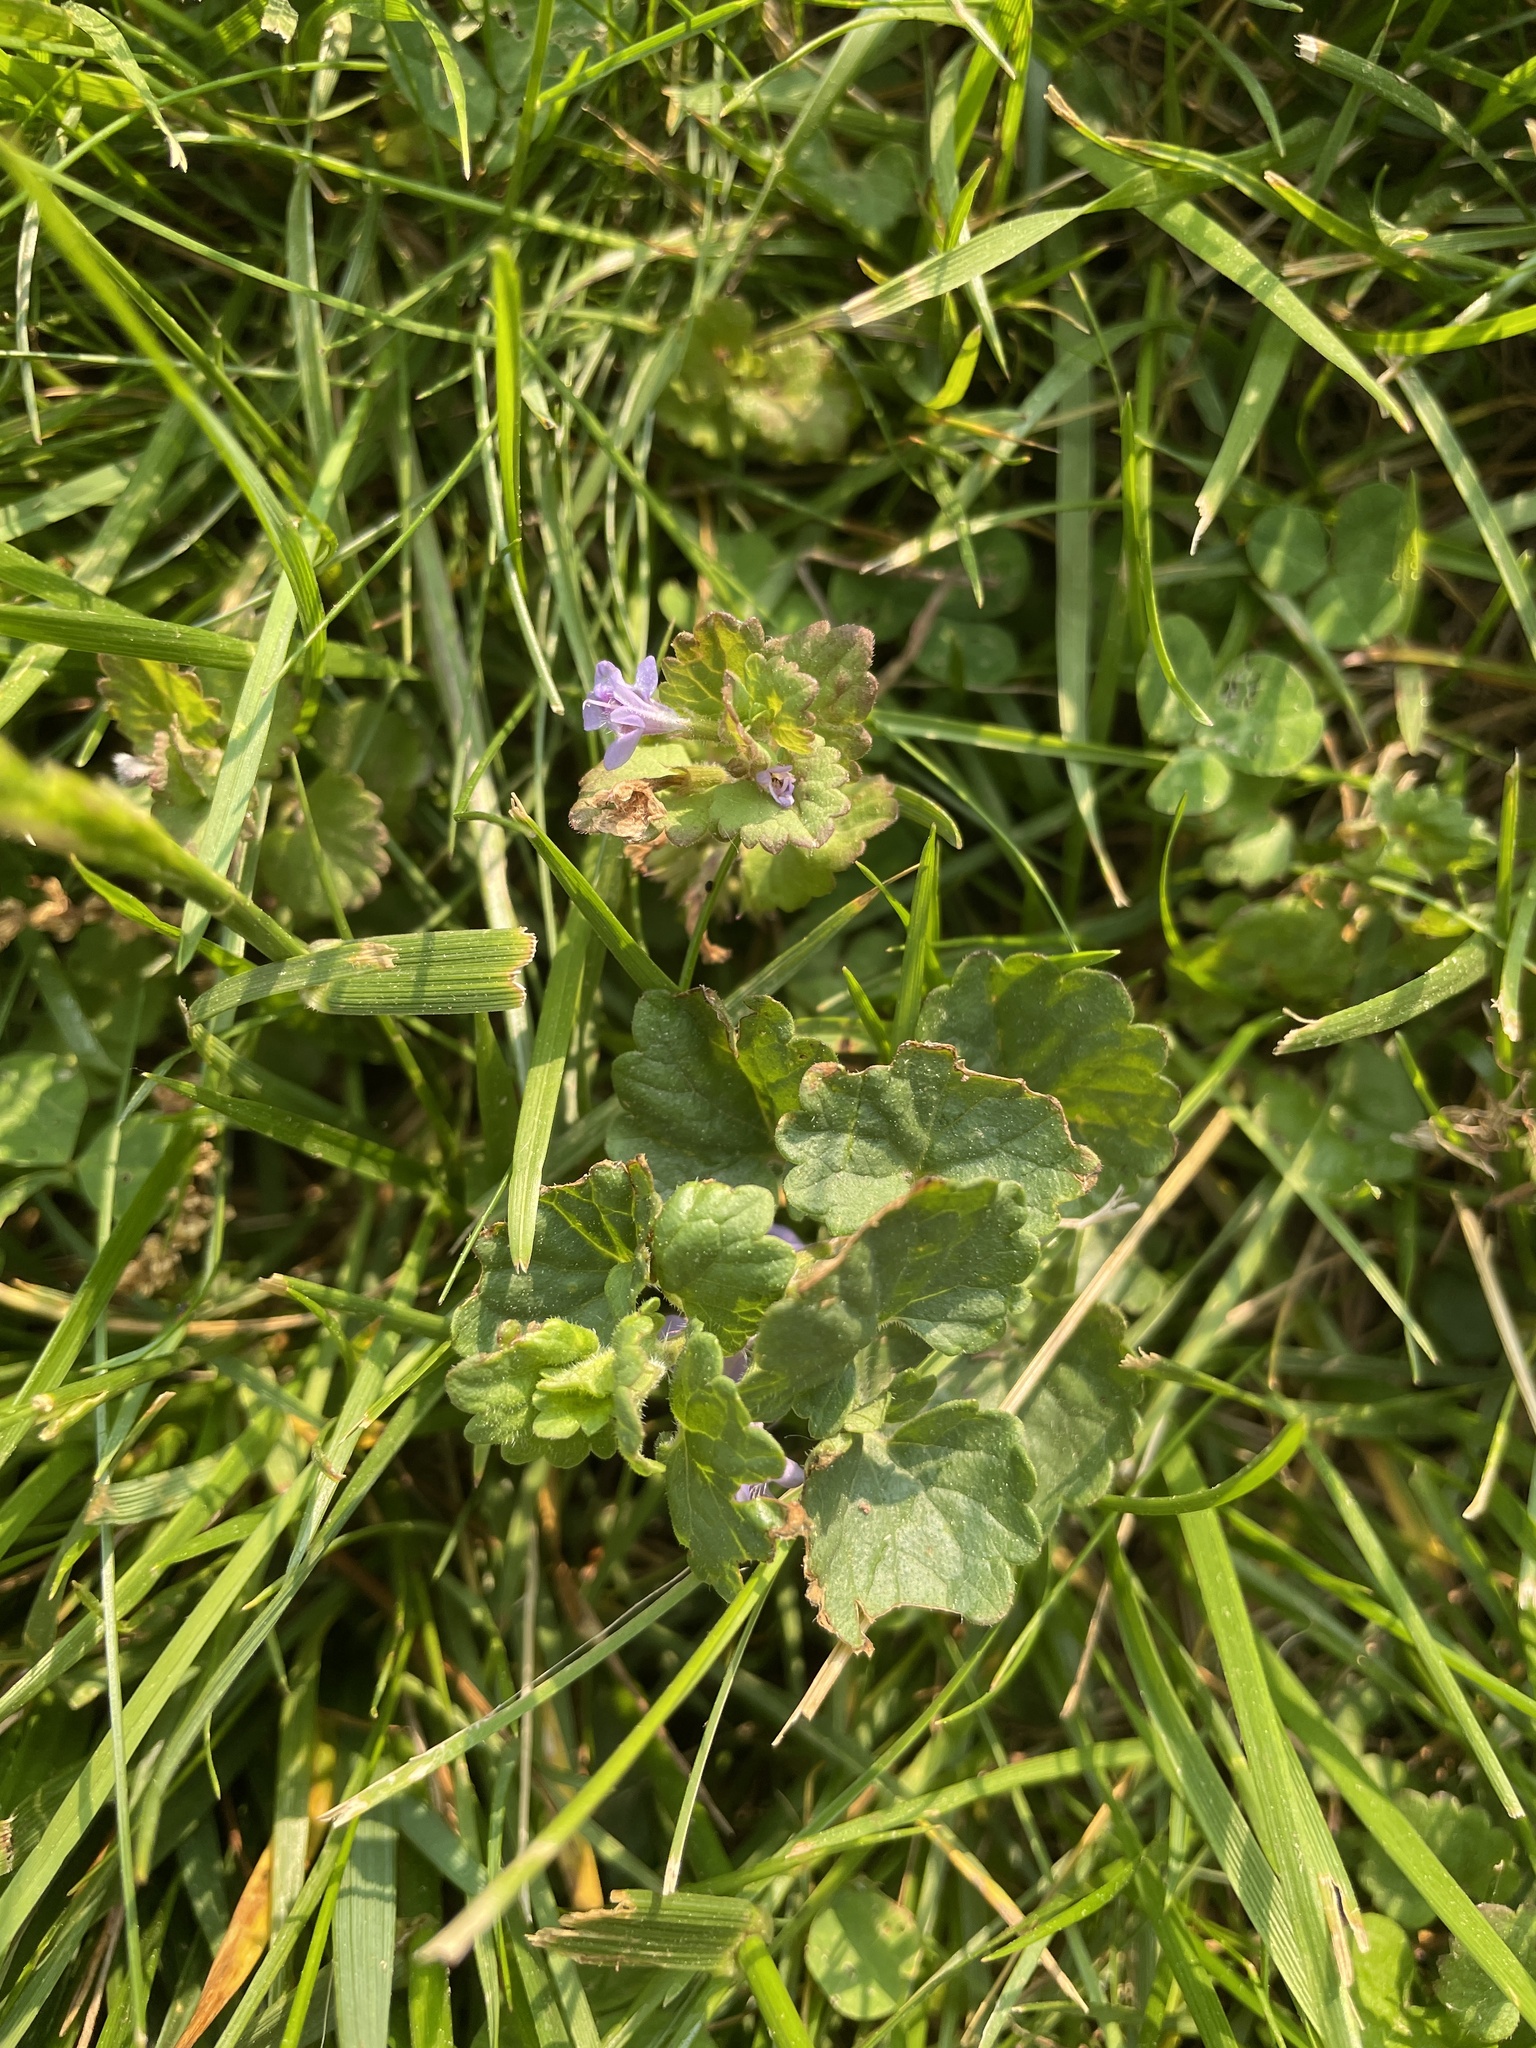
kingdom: Plantae
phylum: Tracheophyta
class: Magnoliopsida
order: Lamiales
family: Lamiaceae
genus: Glechoma
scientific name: Glechoma hederacea
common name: Ground ivy
